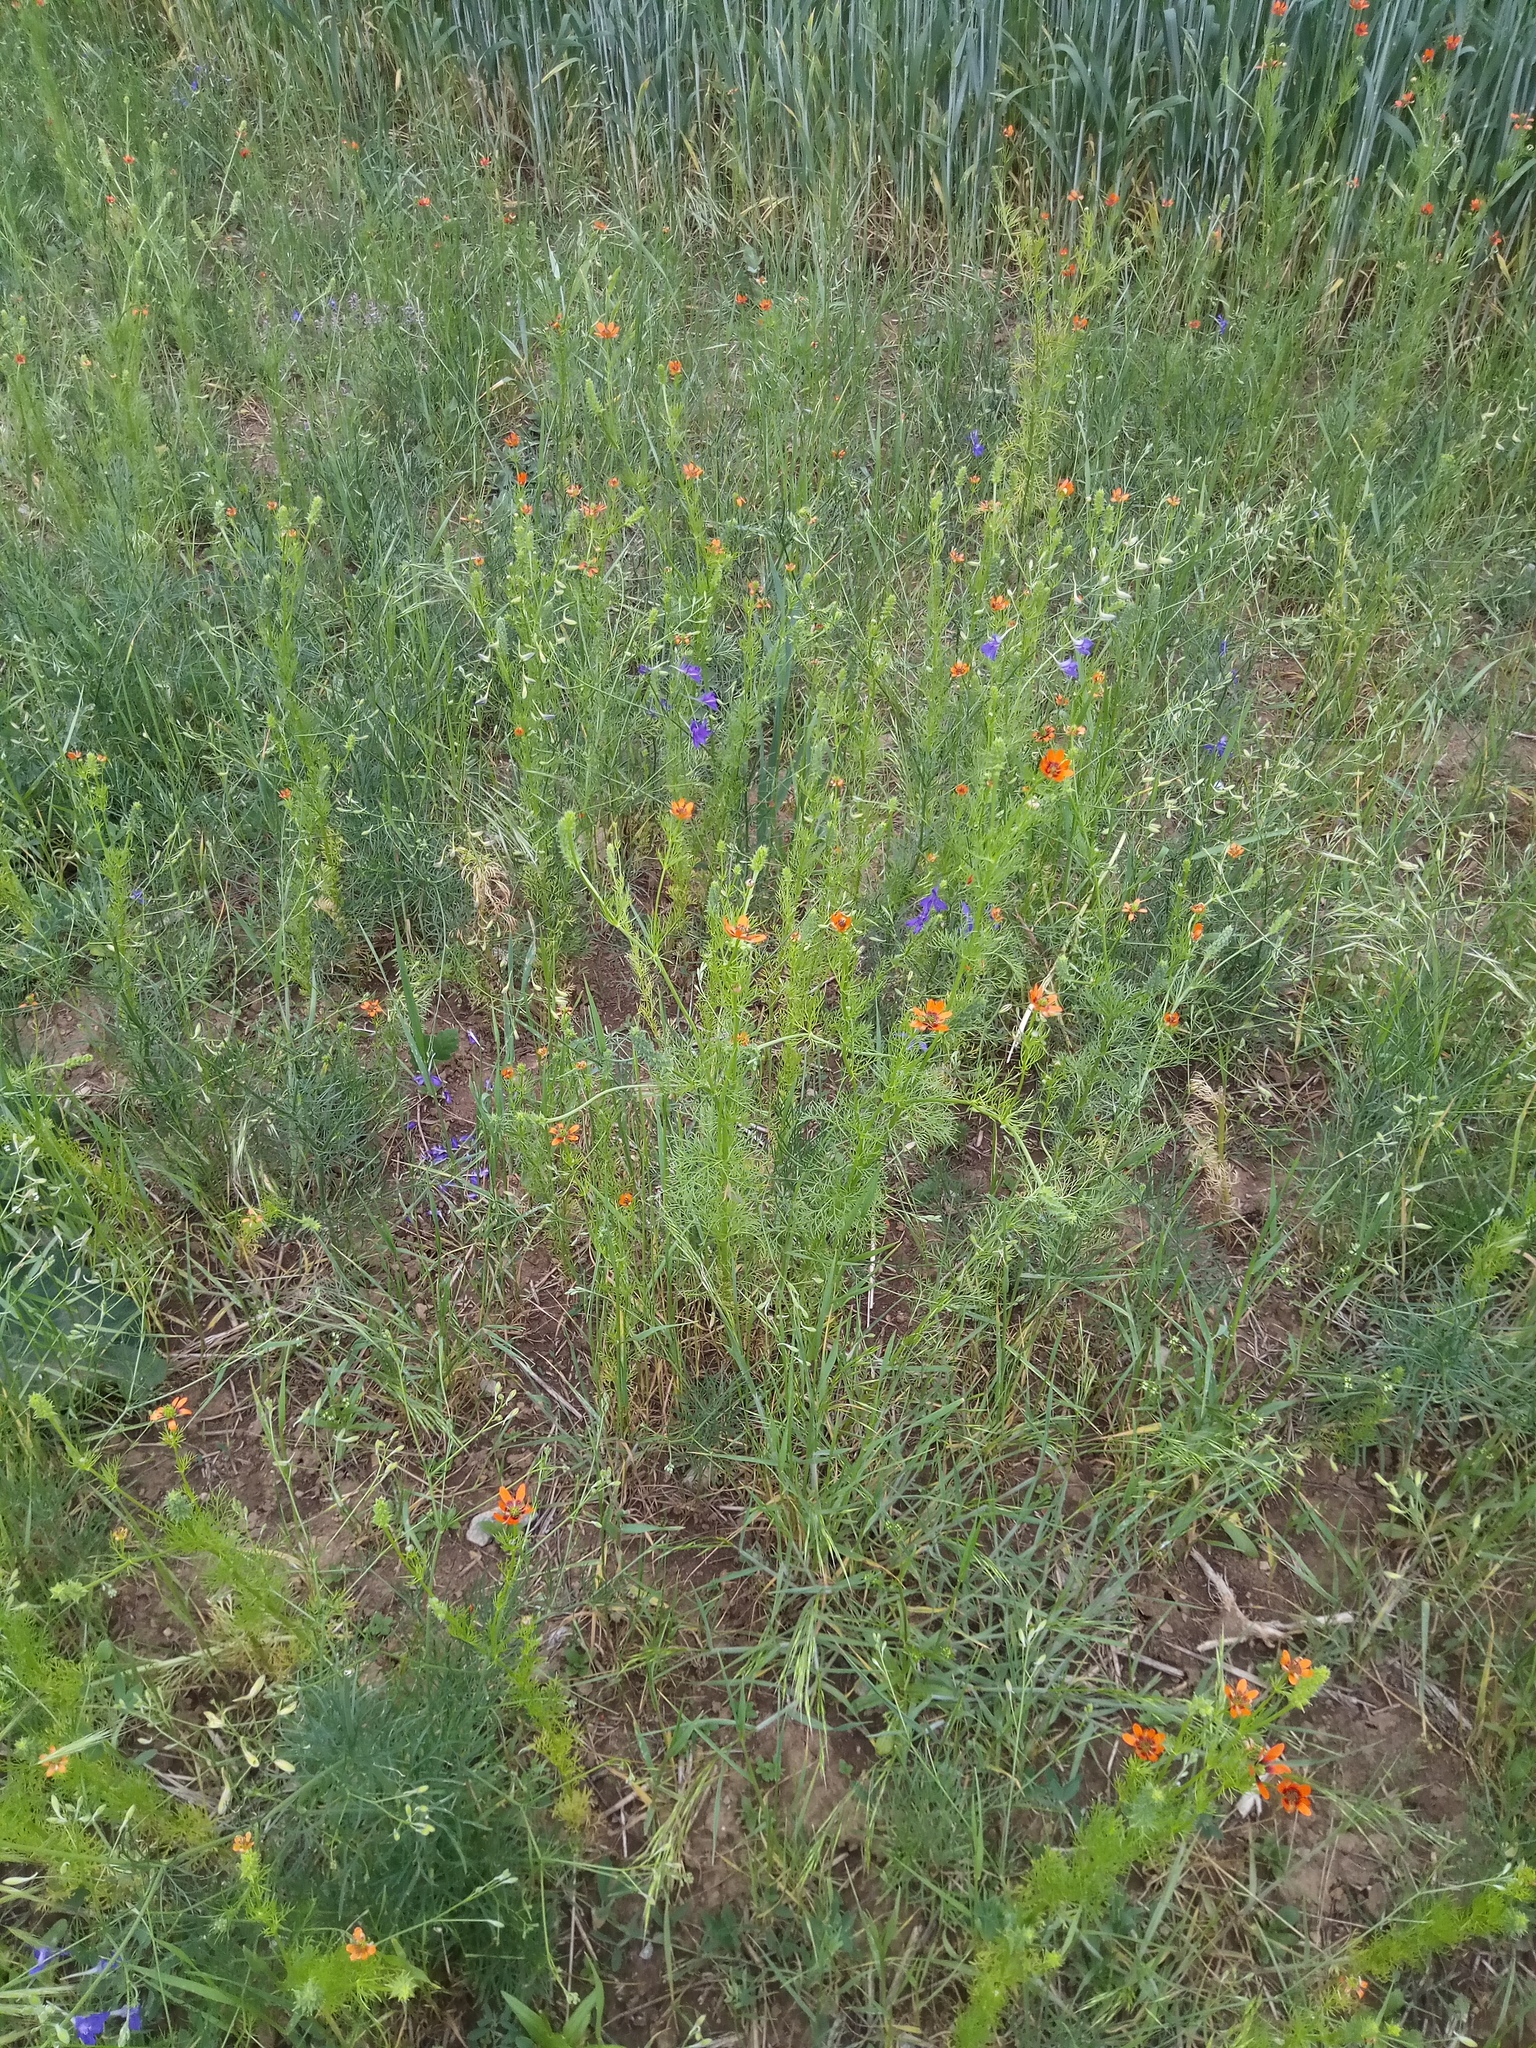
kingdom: Plantae
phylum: Tracheophyta
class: Magnoliopsida
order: Ranunculales
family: Ranunculaceae
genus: Adonis
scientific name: Adonis aestivalis
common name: Summer pheasant's-eye
